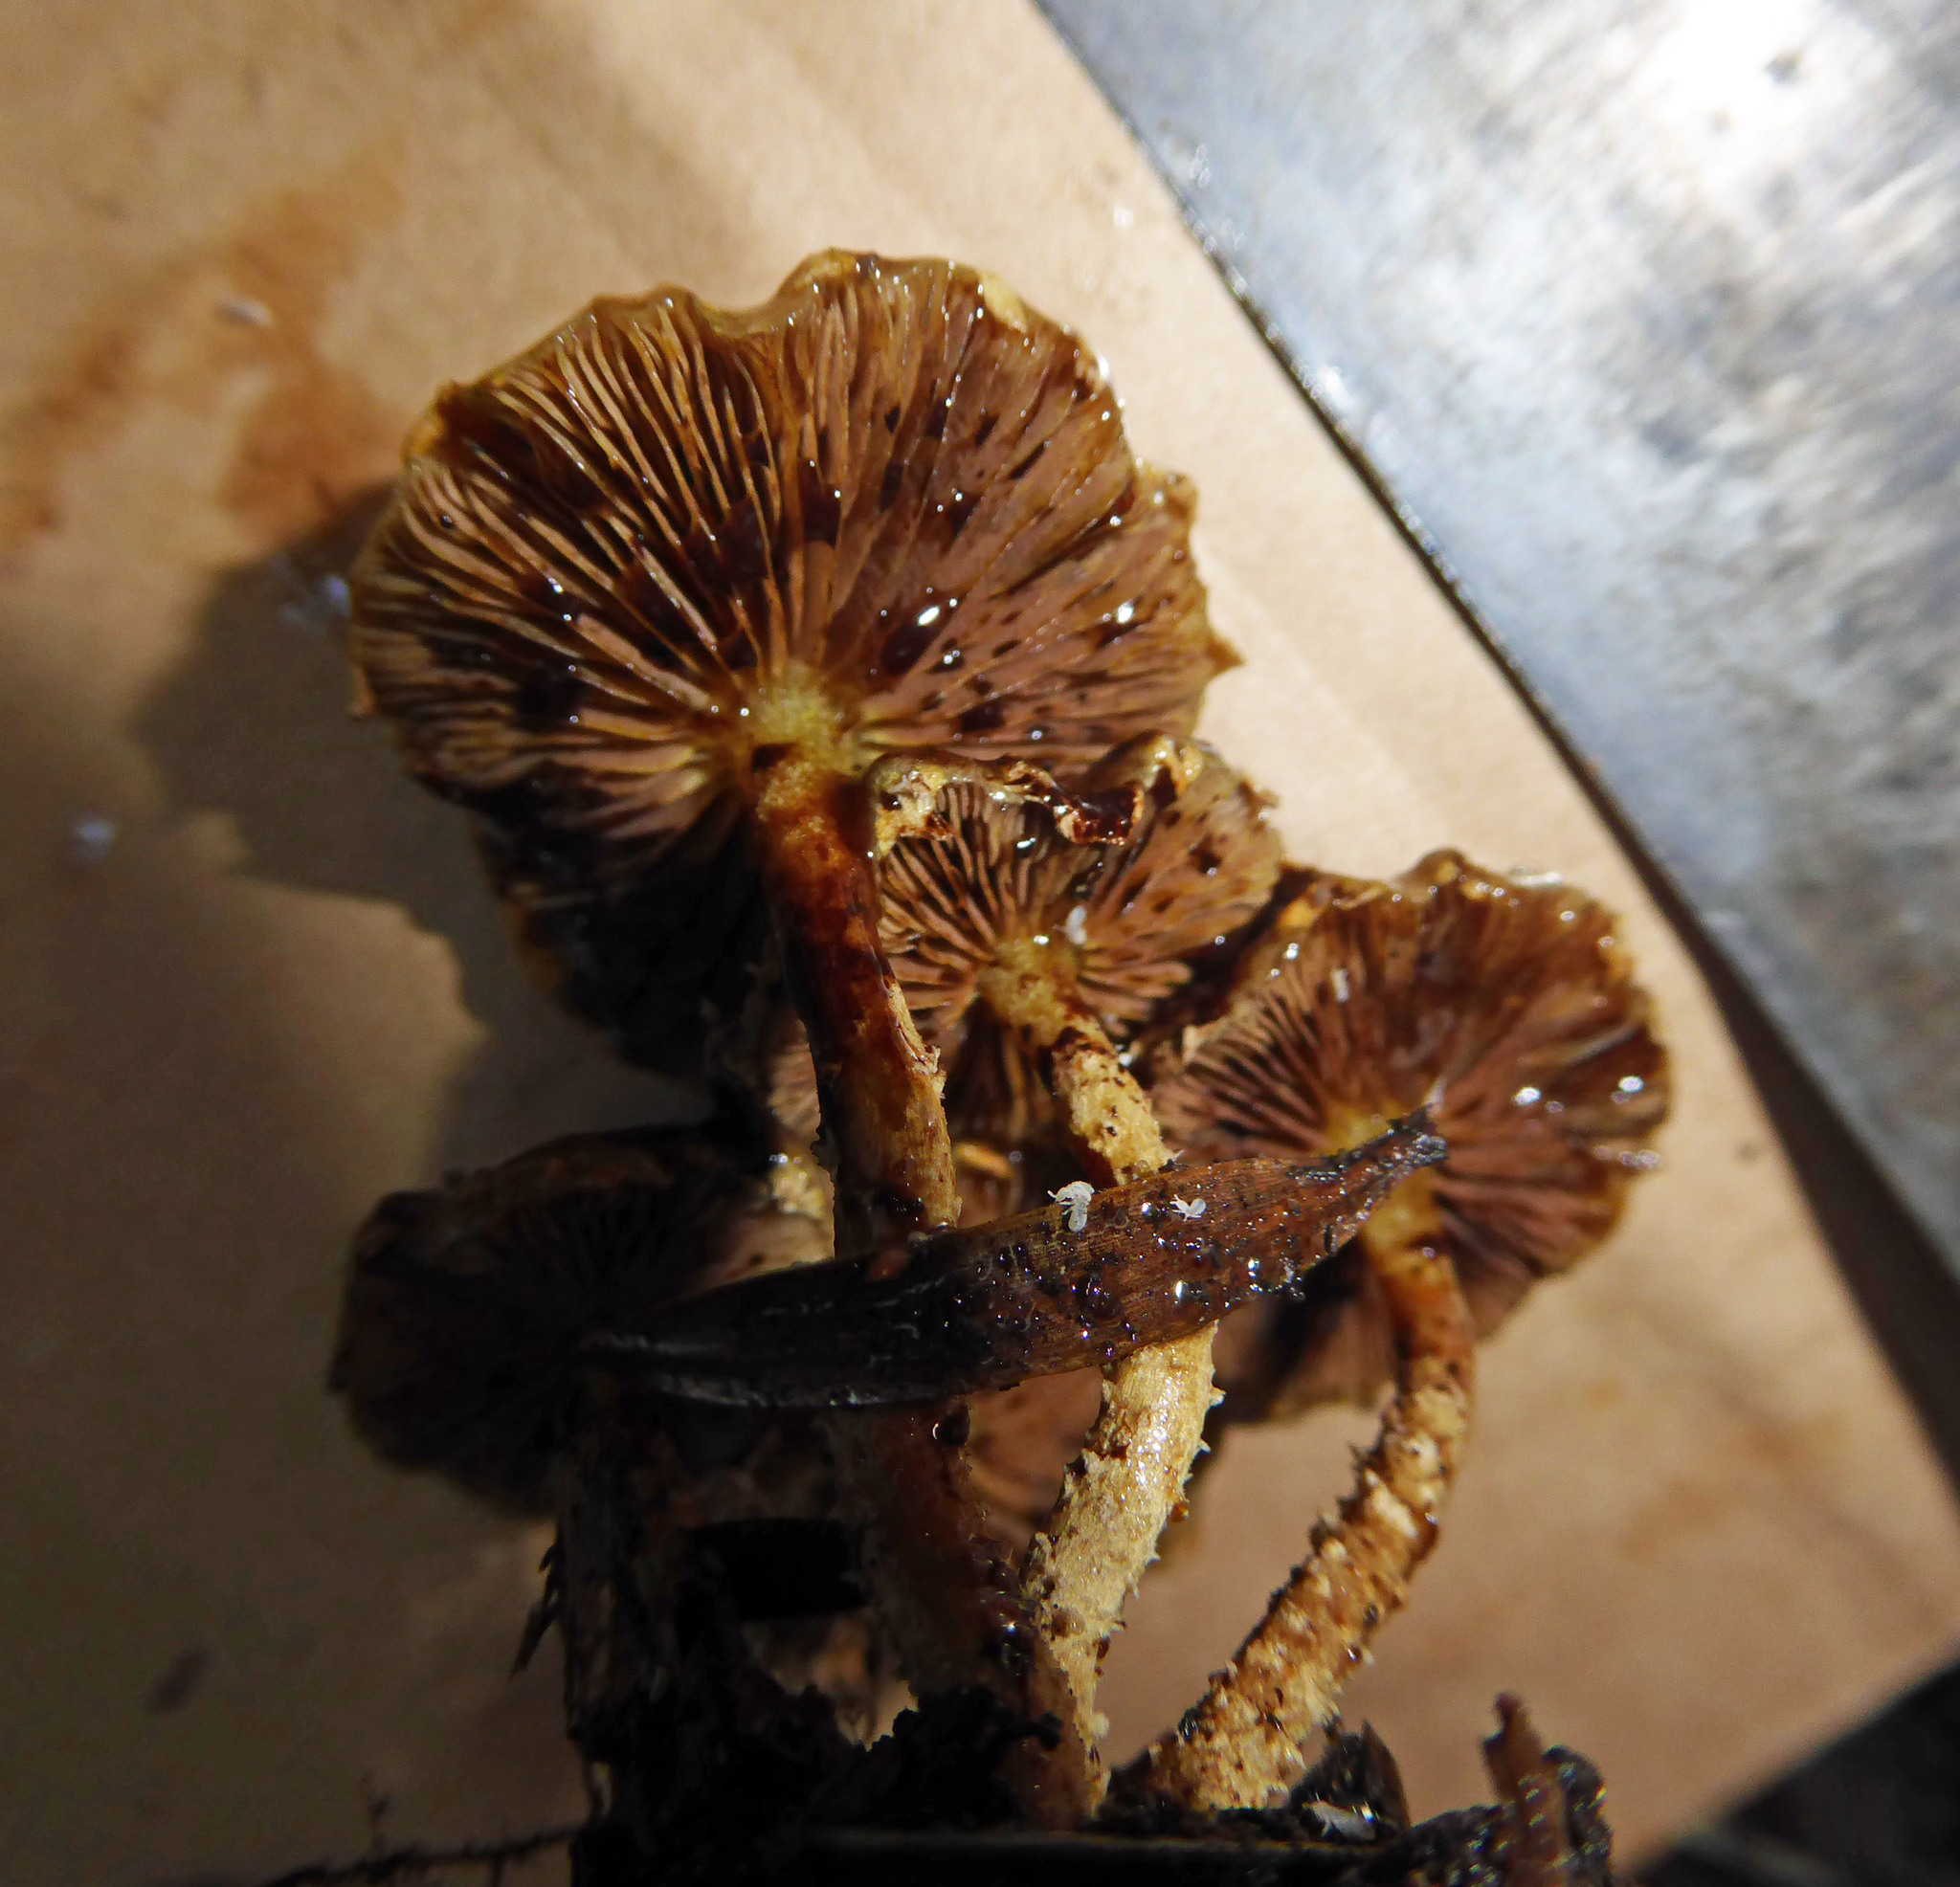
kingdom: Fungi
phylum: Basidiomycota
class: Agaricomycetes
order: Agaricales
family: Strophariaceae
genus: Pholiota
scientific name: Pholiota subflammans
